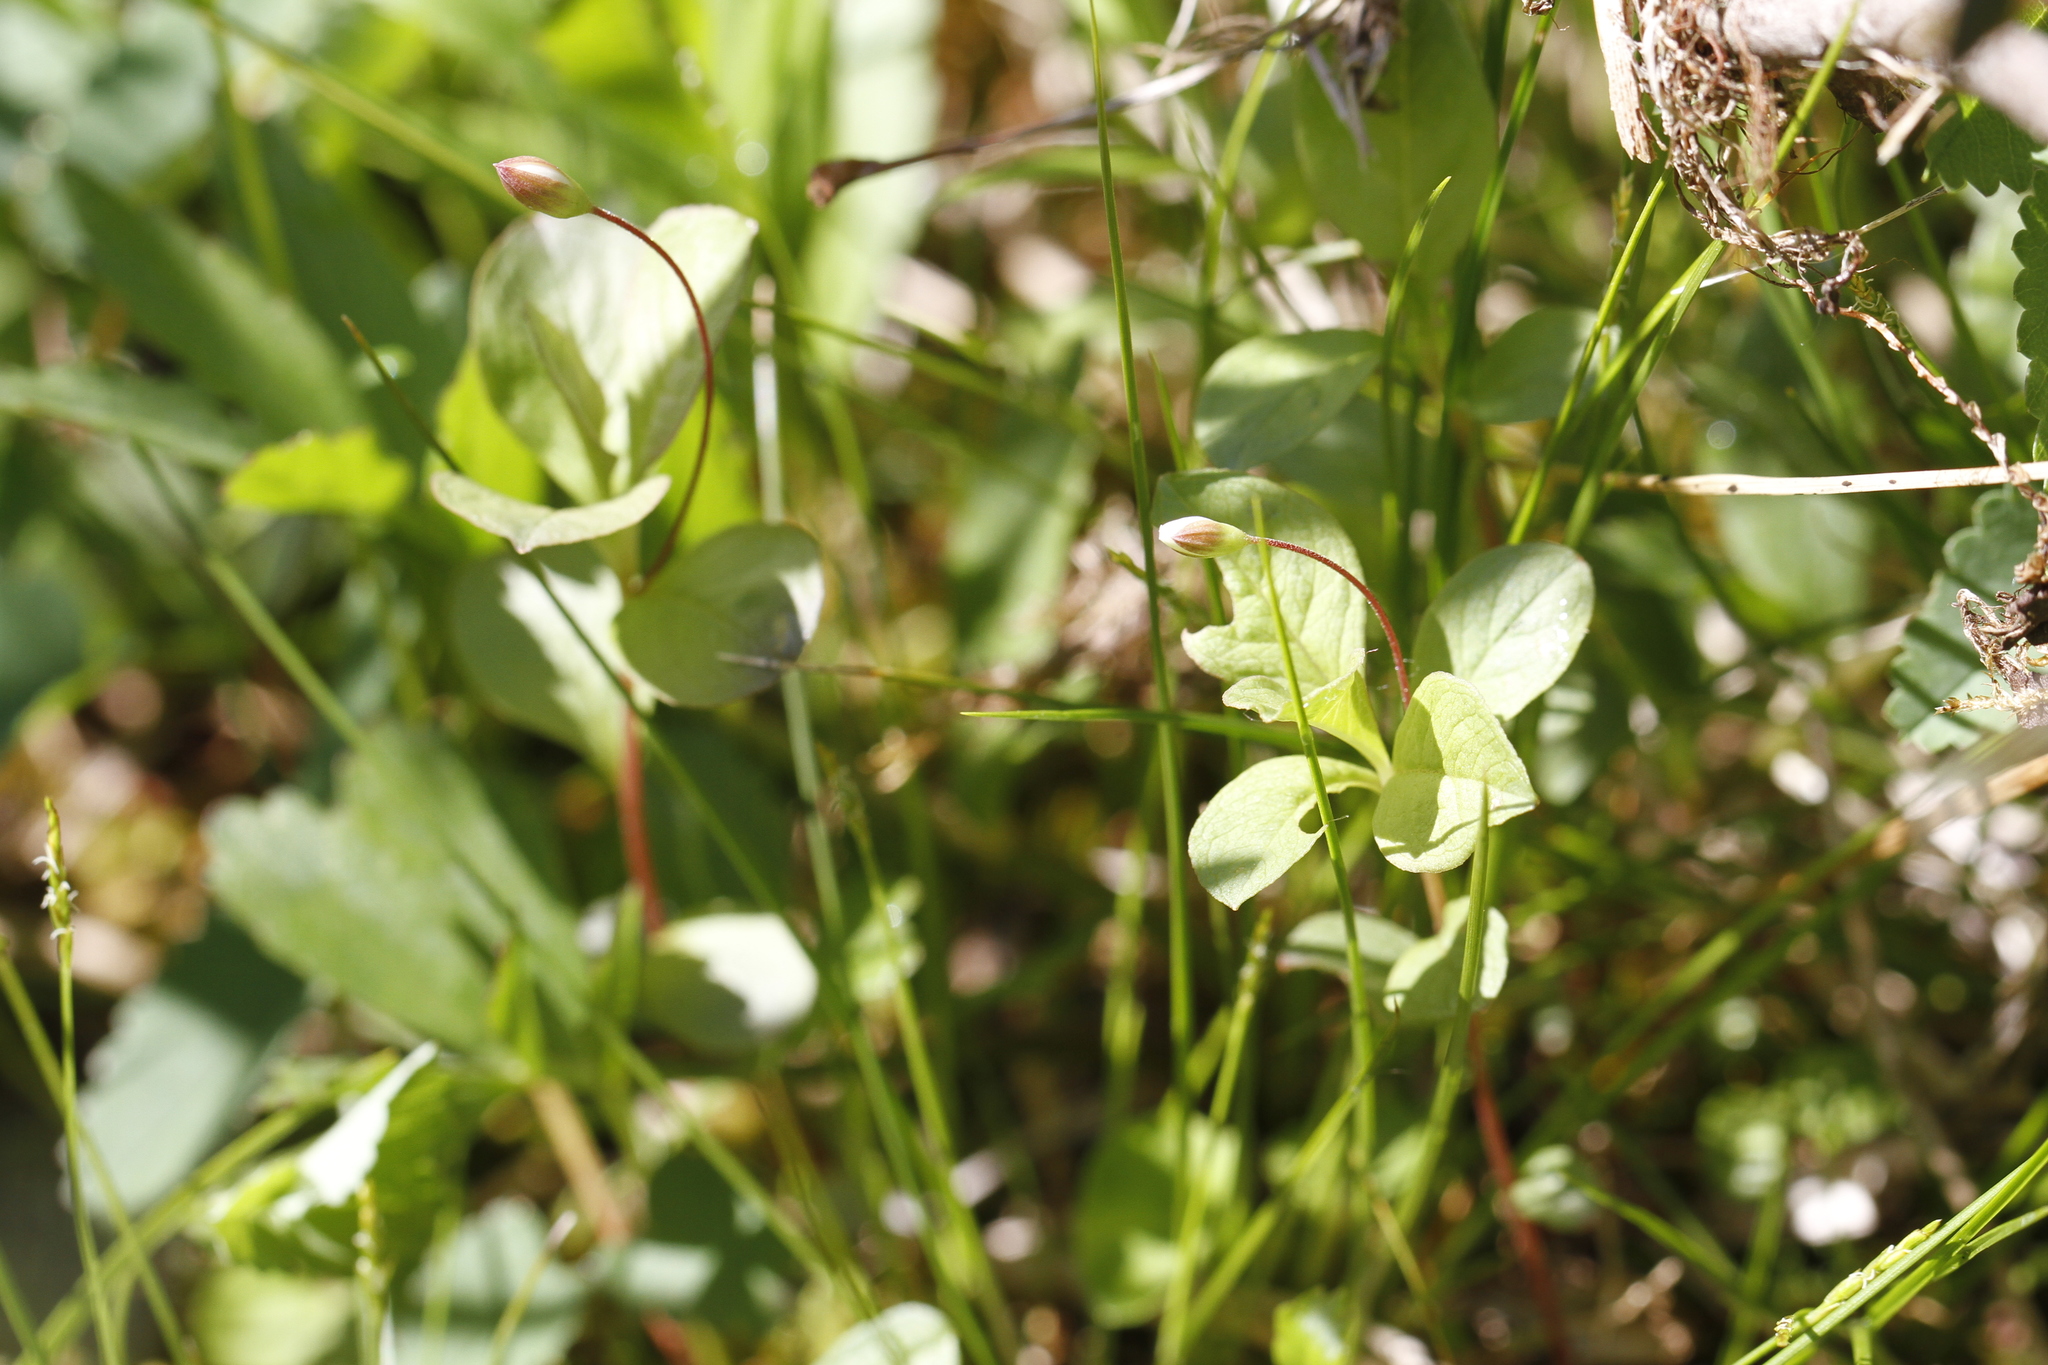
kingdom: Plantae
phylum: Tracheophyta
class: Magnoliopsida
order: Ericales
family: Primulaceae
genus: Lysimachia
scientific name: Lysimachia europaea
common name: Arctic starflower
